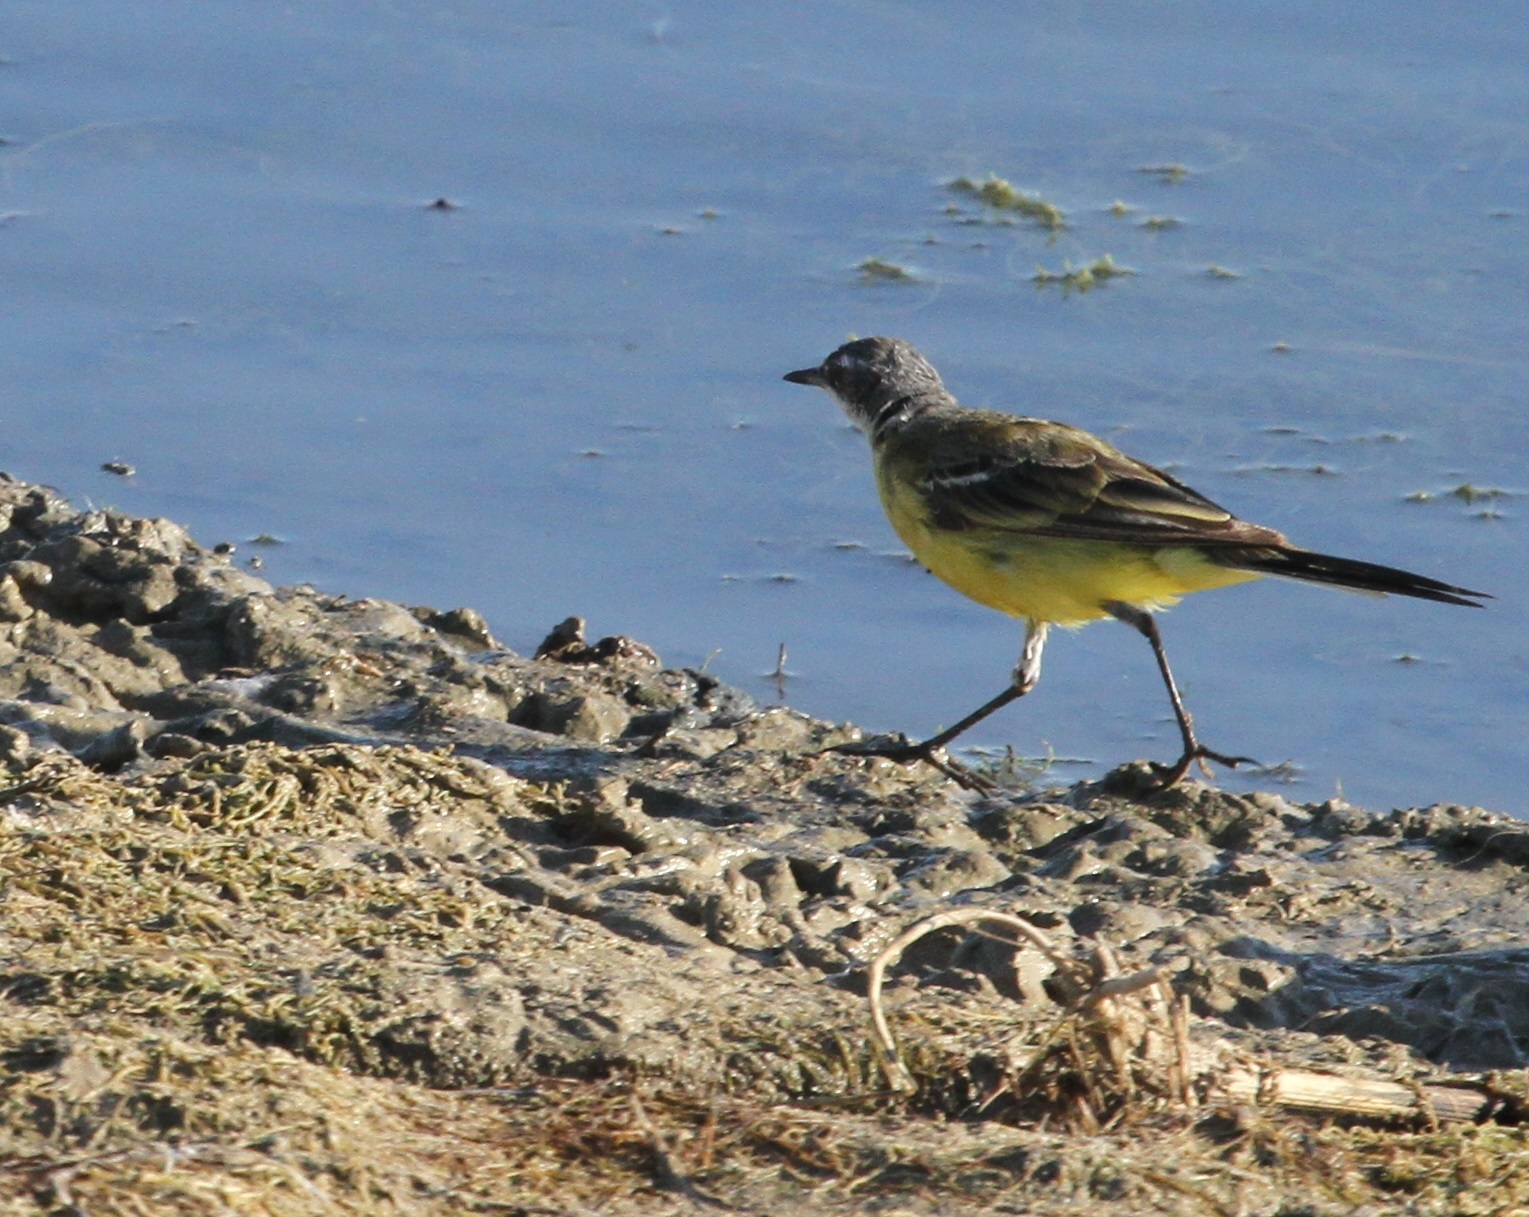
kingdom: Animalia
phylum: Chordata
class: Aves
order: Passeriformes
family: Motacillidae
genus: Motacilla
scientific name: Motacilla flava
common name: Western yellow wagtail
